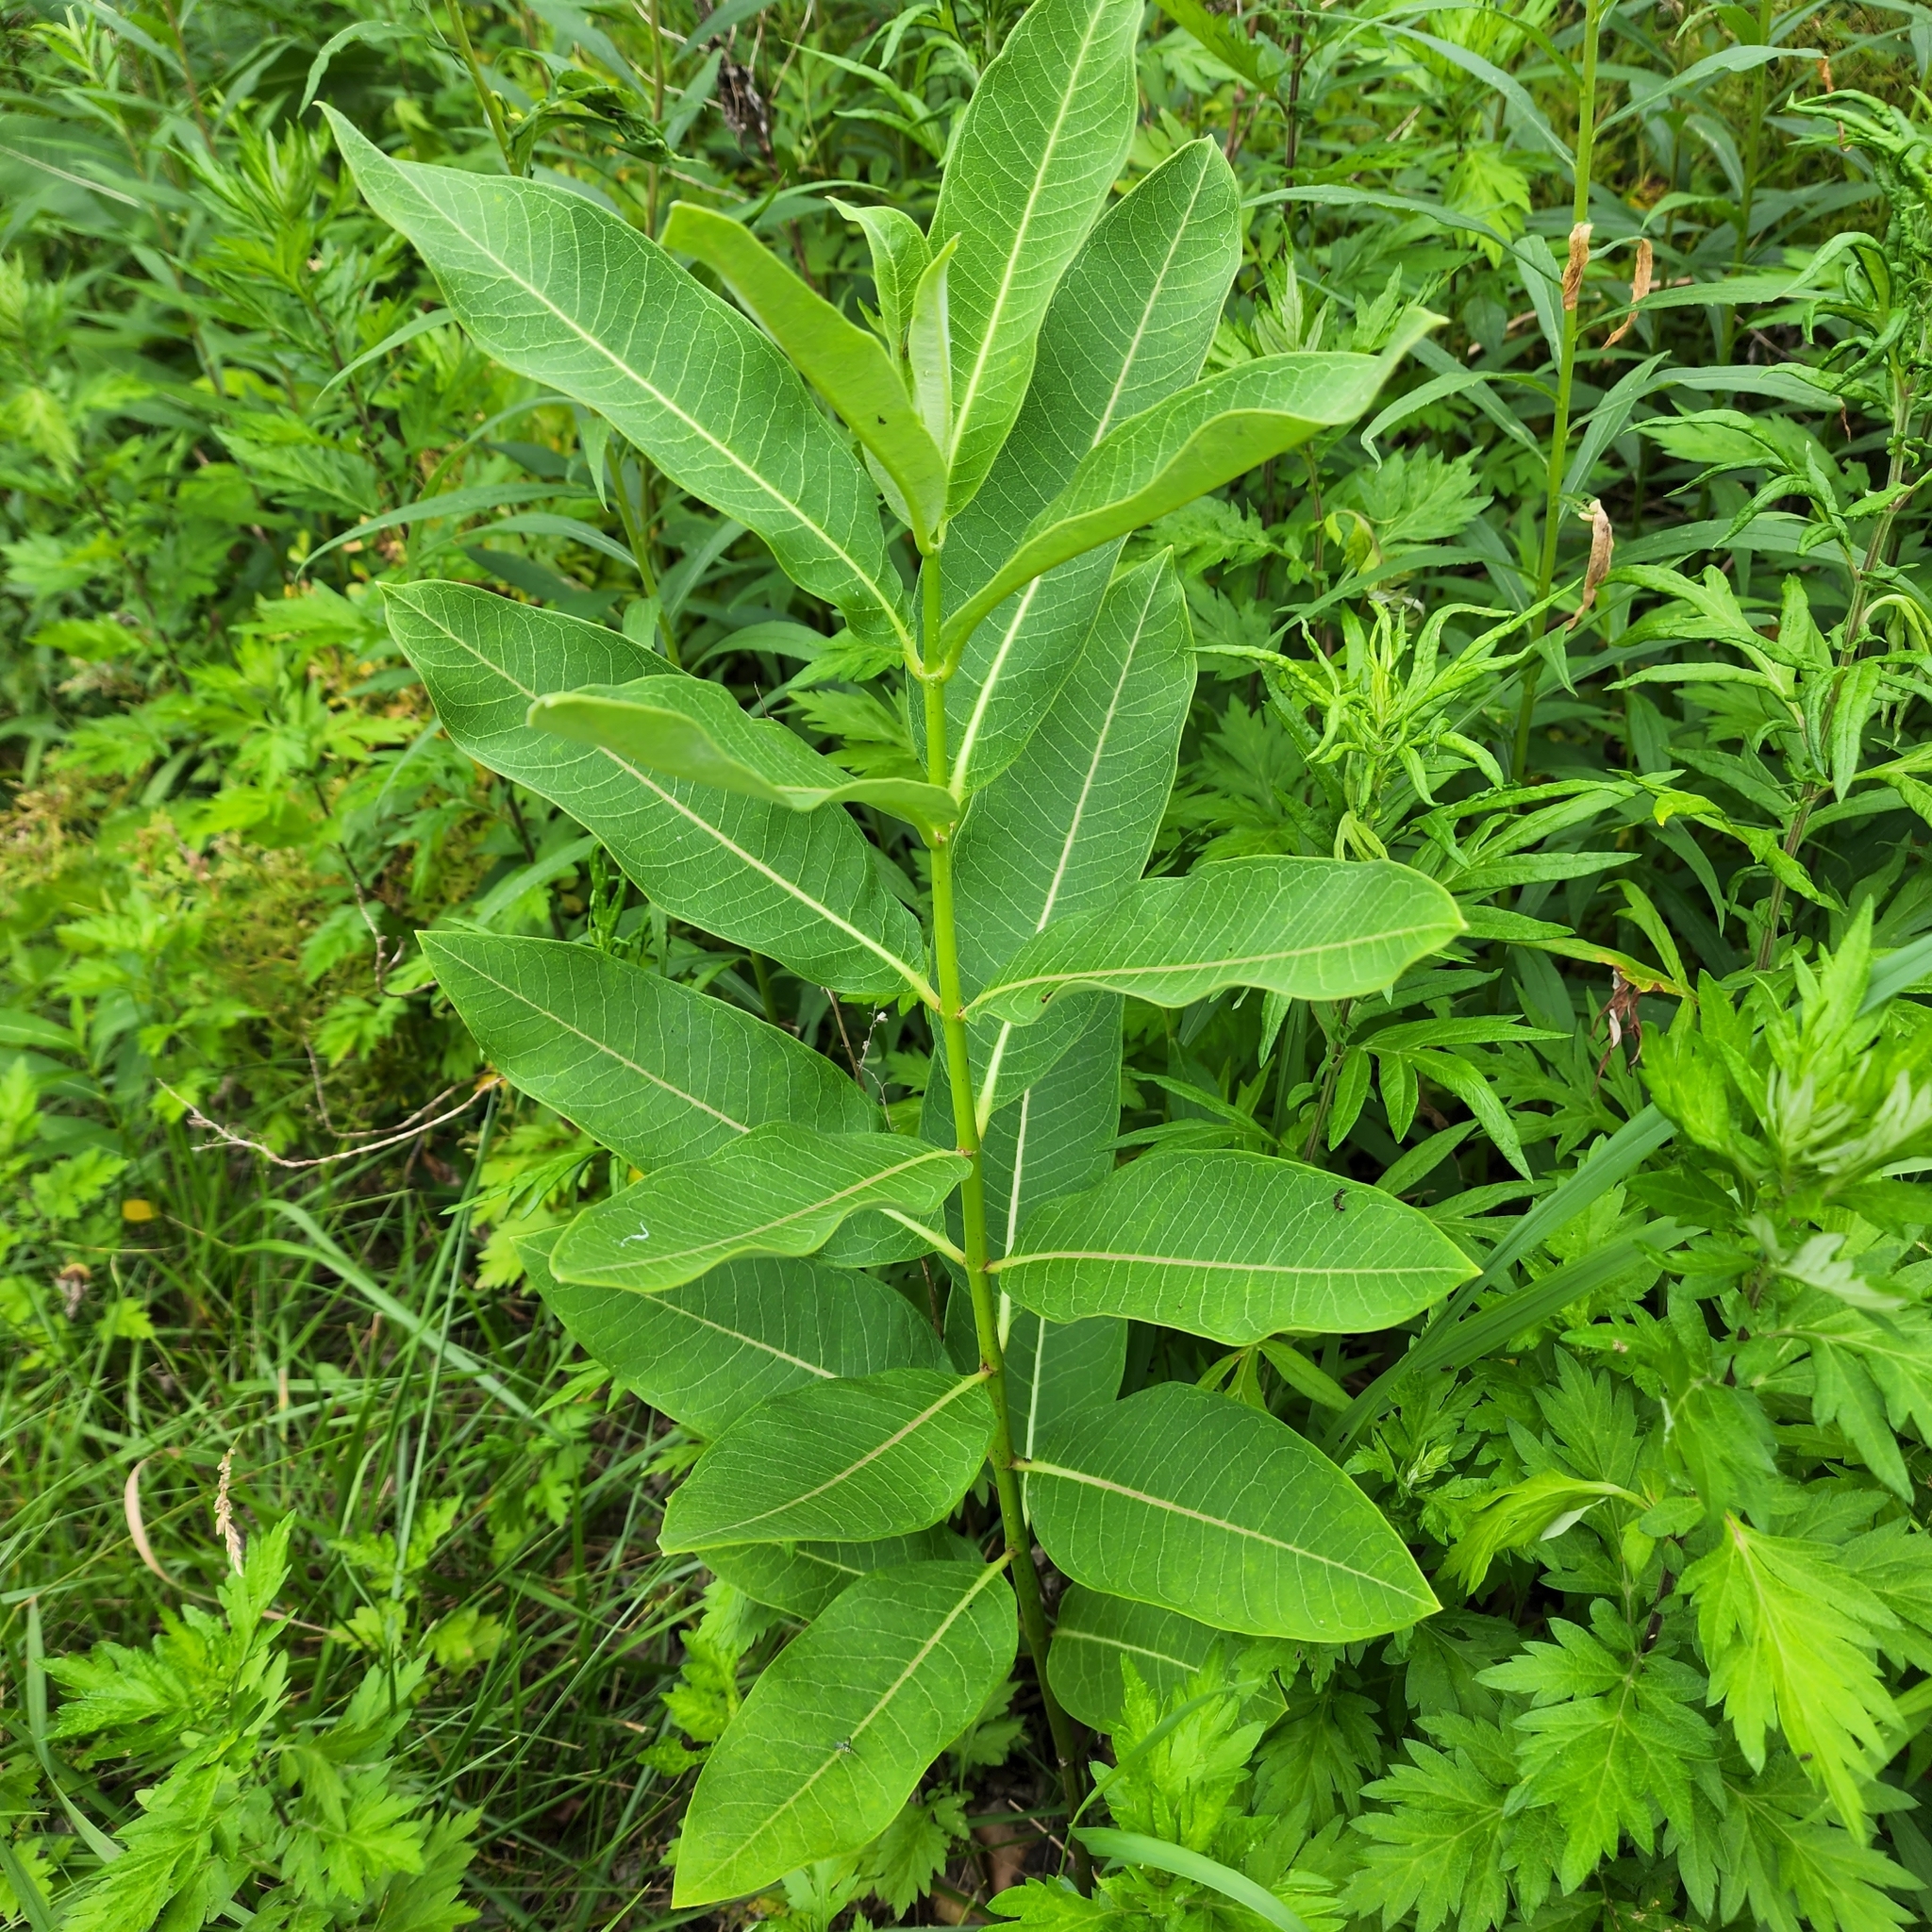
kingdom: Plantae
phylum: Tracheophyta
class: Magnoliopsida
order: Gentianales
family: Apocynaceae
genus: Asclepias
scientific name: Asclepias syriaca
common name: Common milkweed
